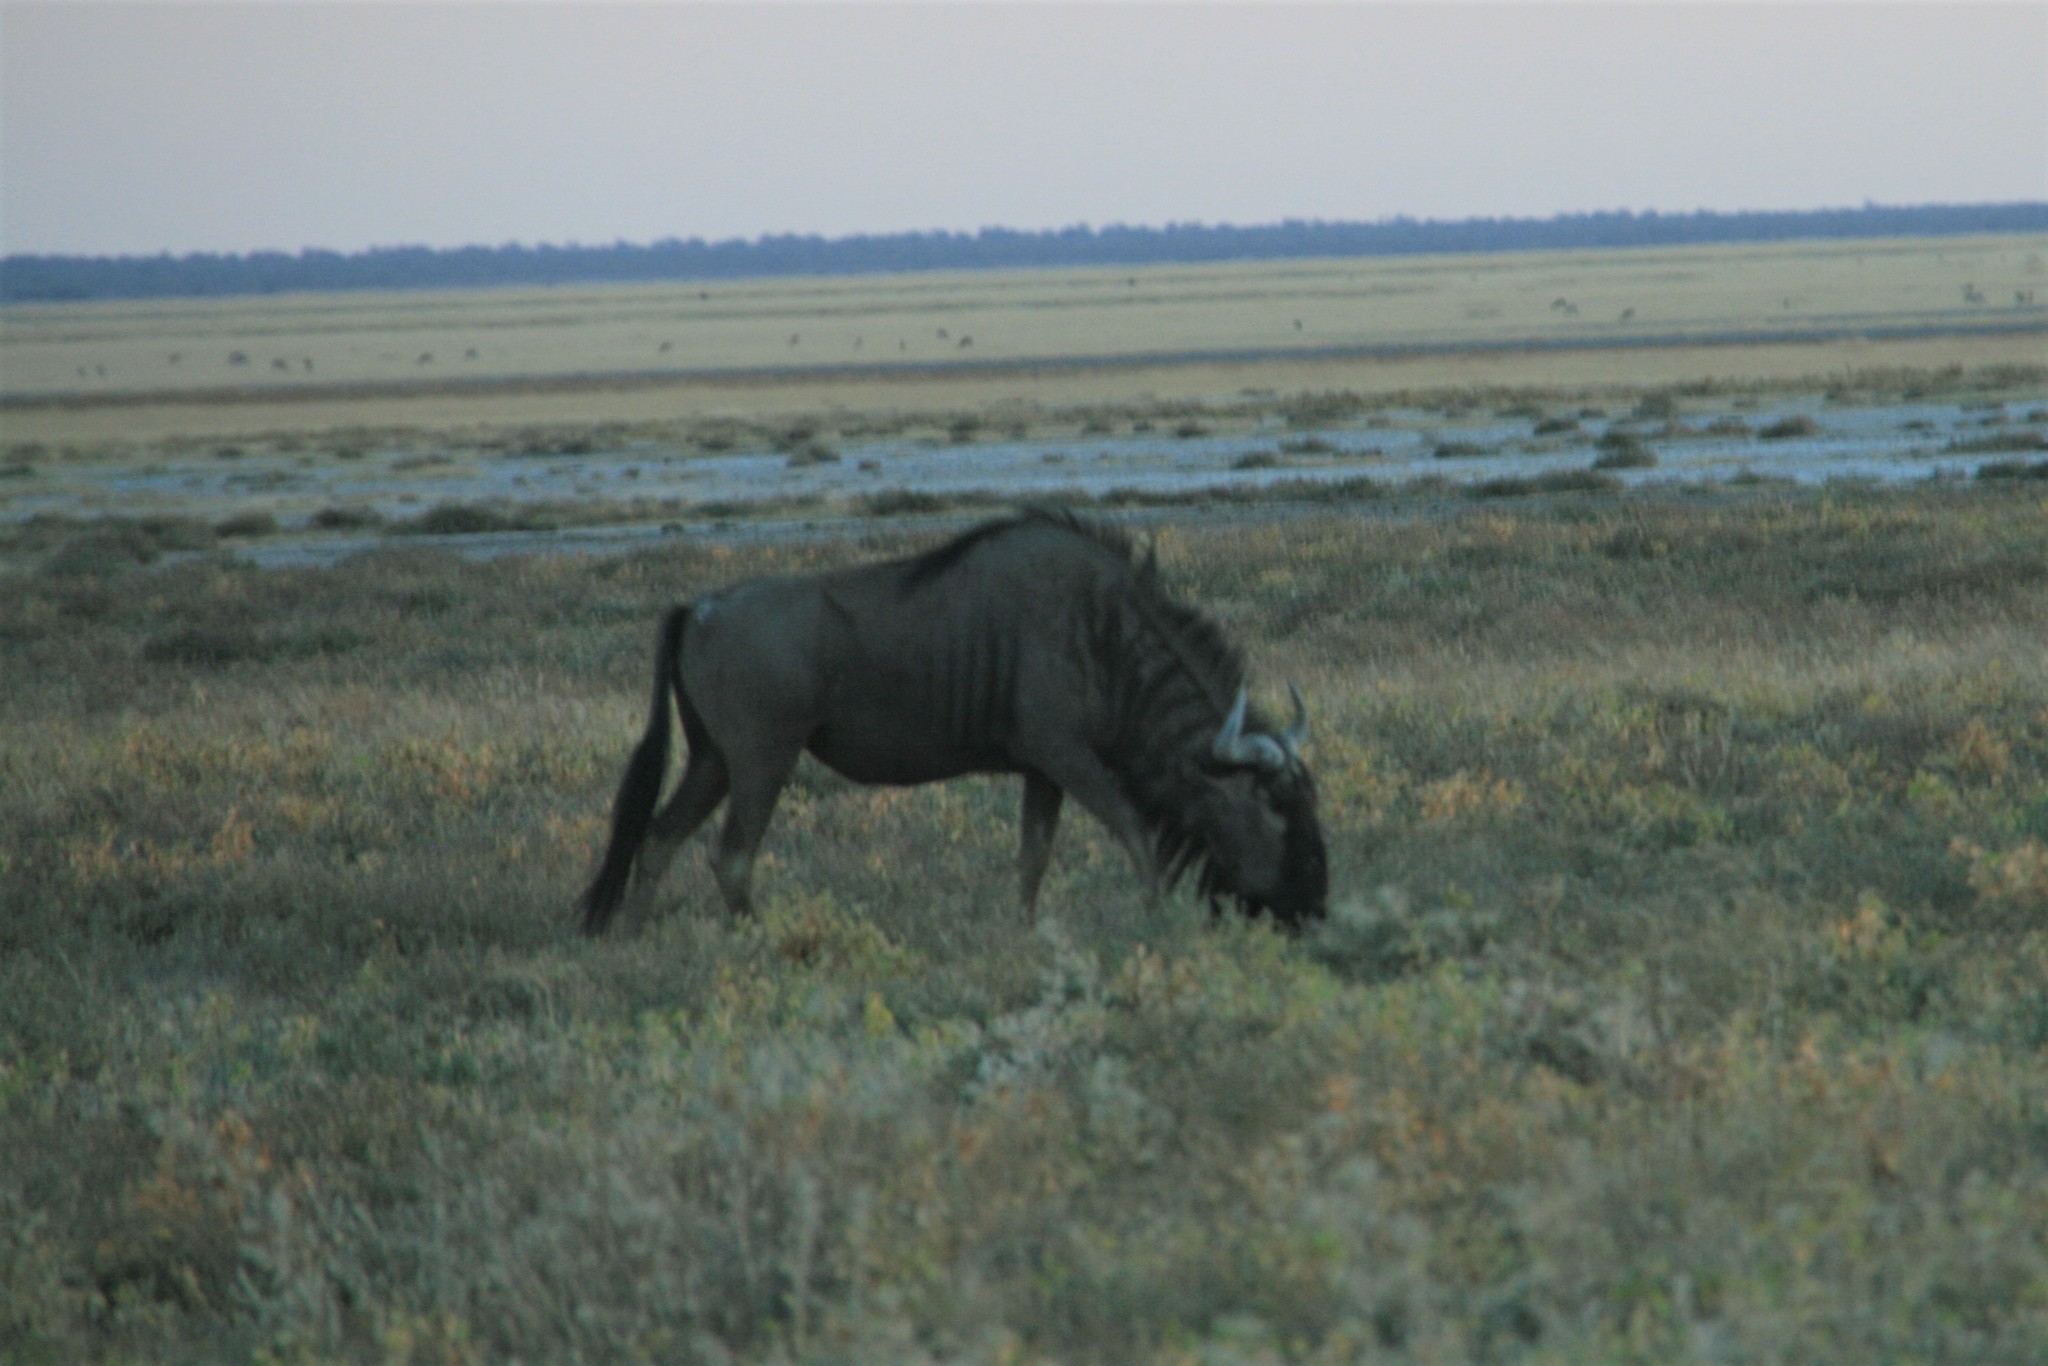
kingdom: Animalia
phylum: Chordata
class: Mammalia
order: Artiodactyla
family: Bovidae
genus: Connochaetes
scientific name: Connochaetes taurinus
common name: Blue wildebeest
